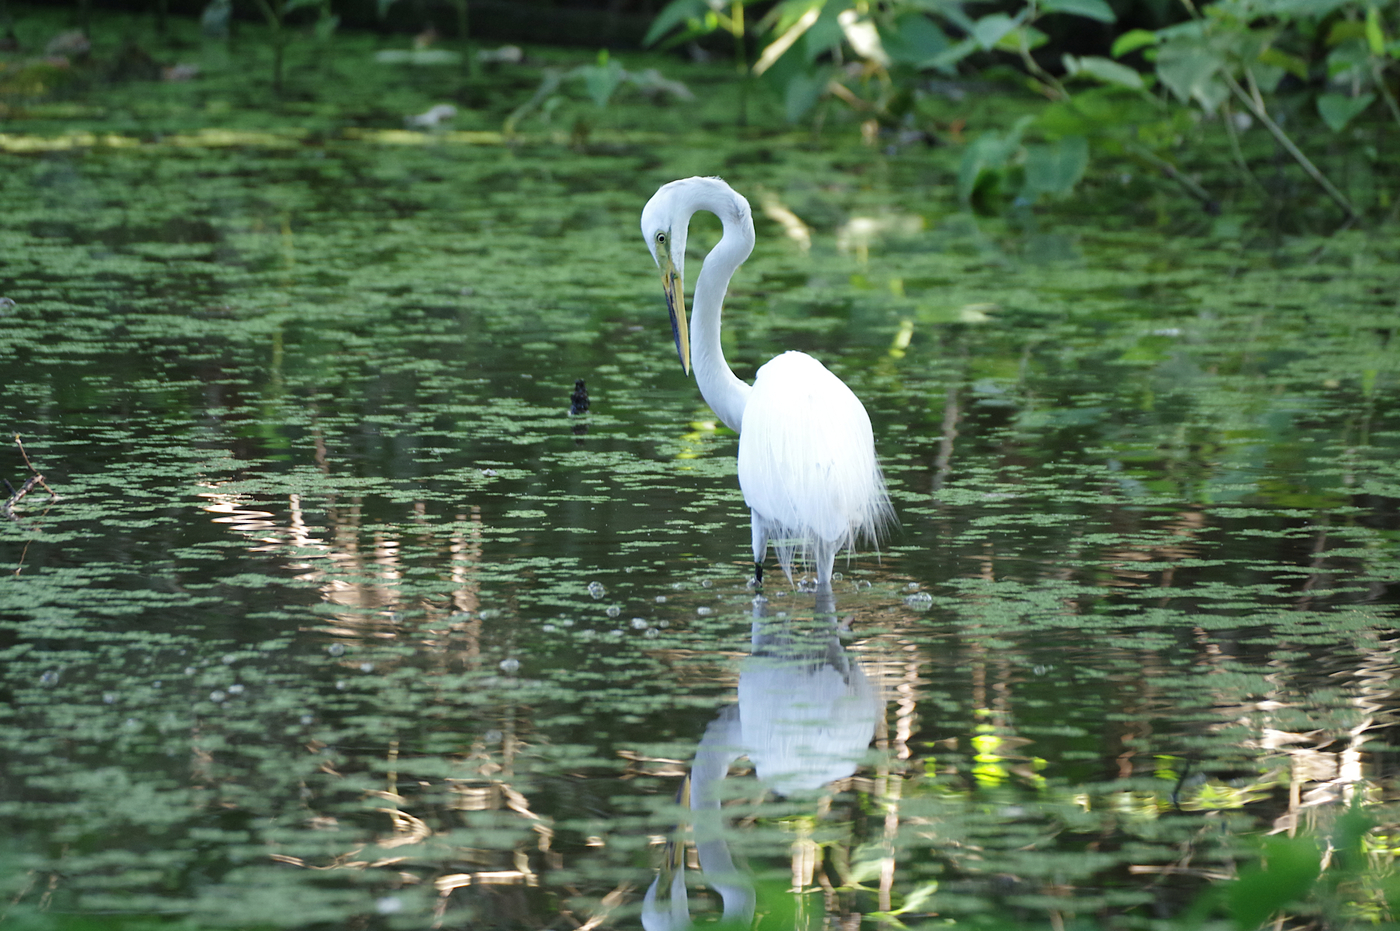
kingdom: Animalia
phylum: Chordata
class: Aves
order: Pelecaniformes
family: Ardeidae
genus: Ardea
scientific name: Ardea alba
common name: Great egret
